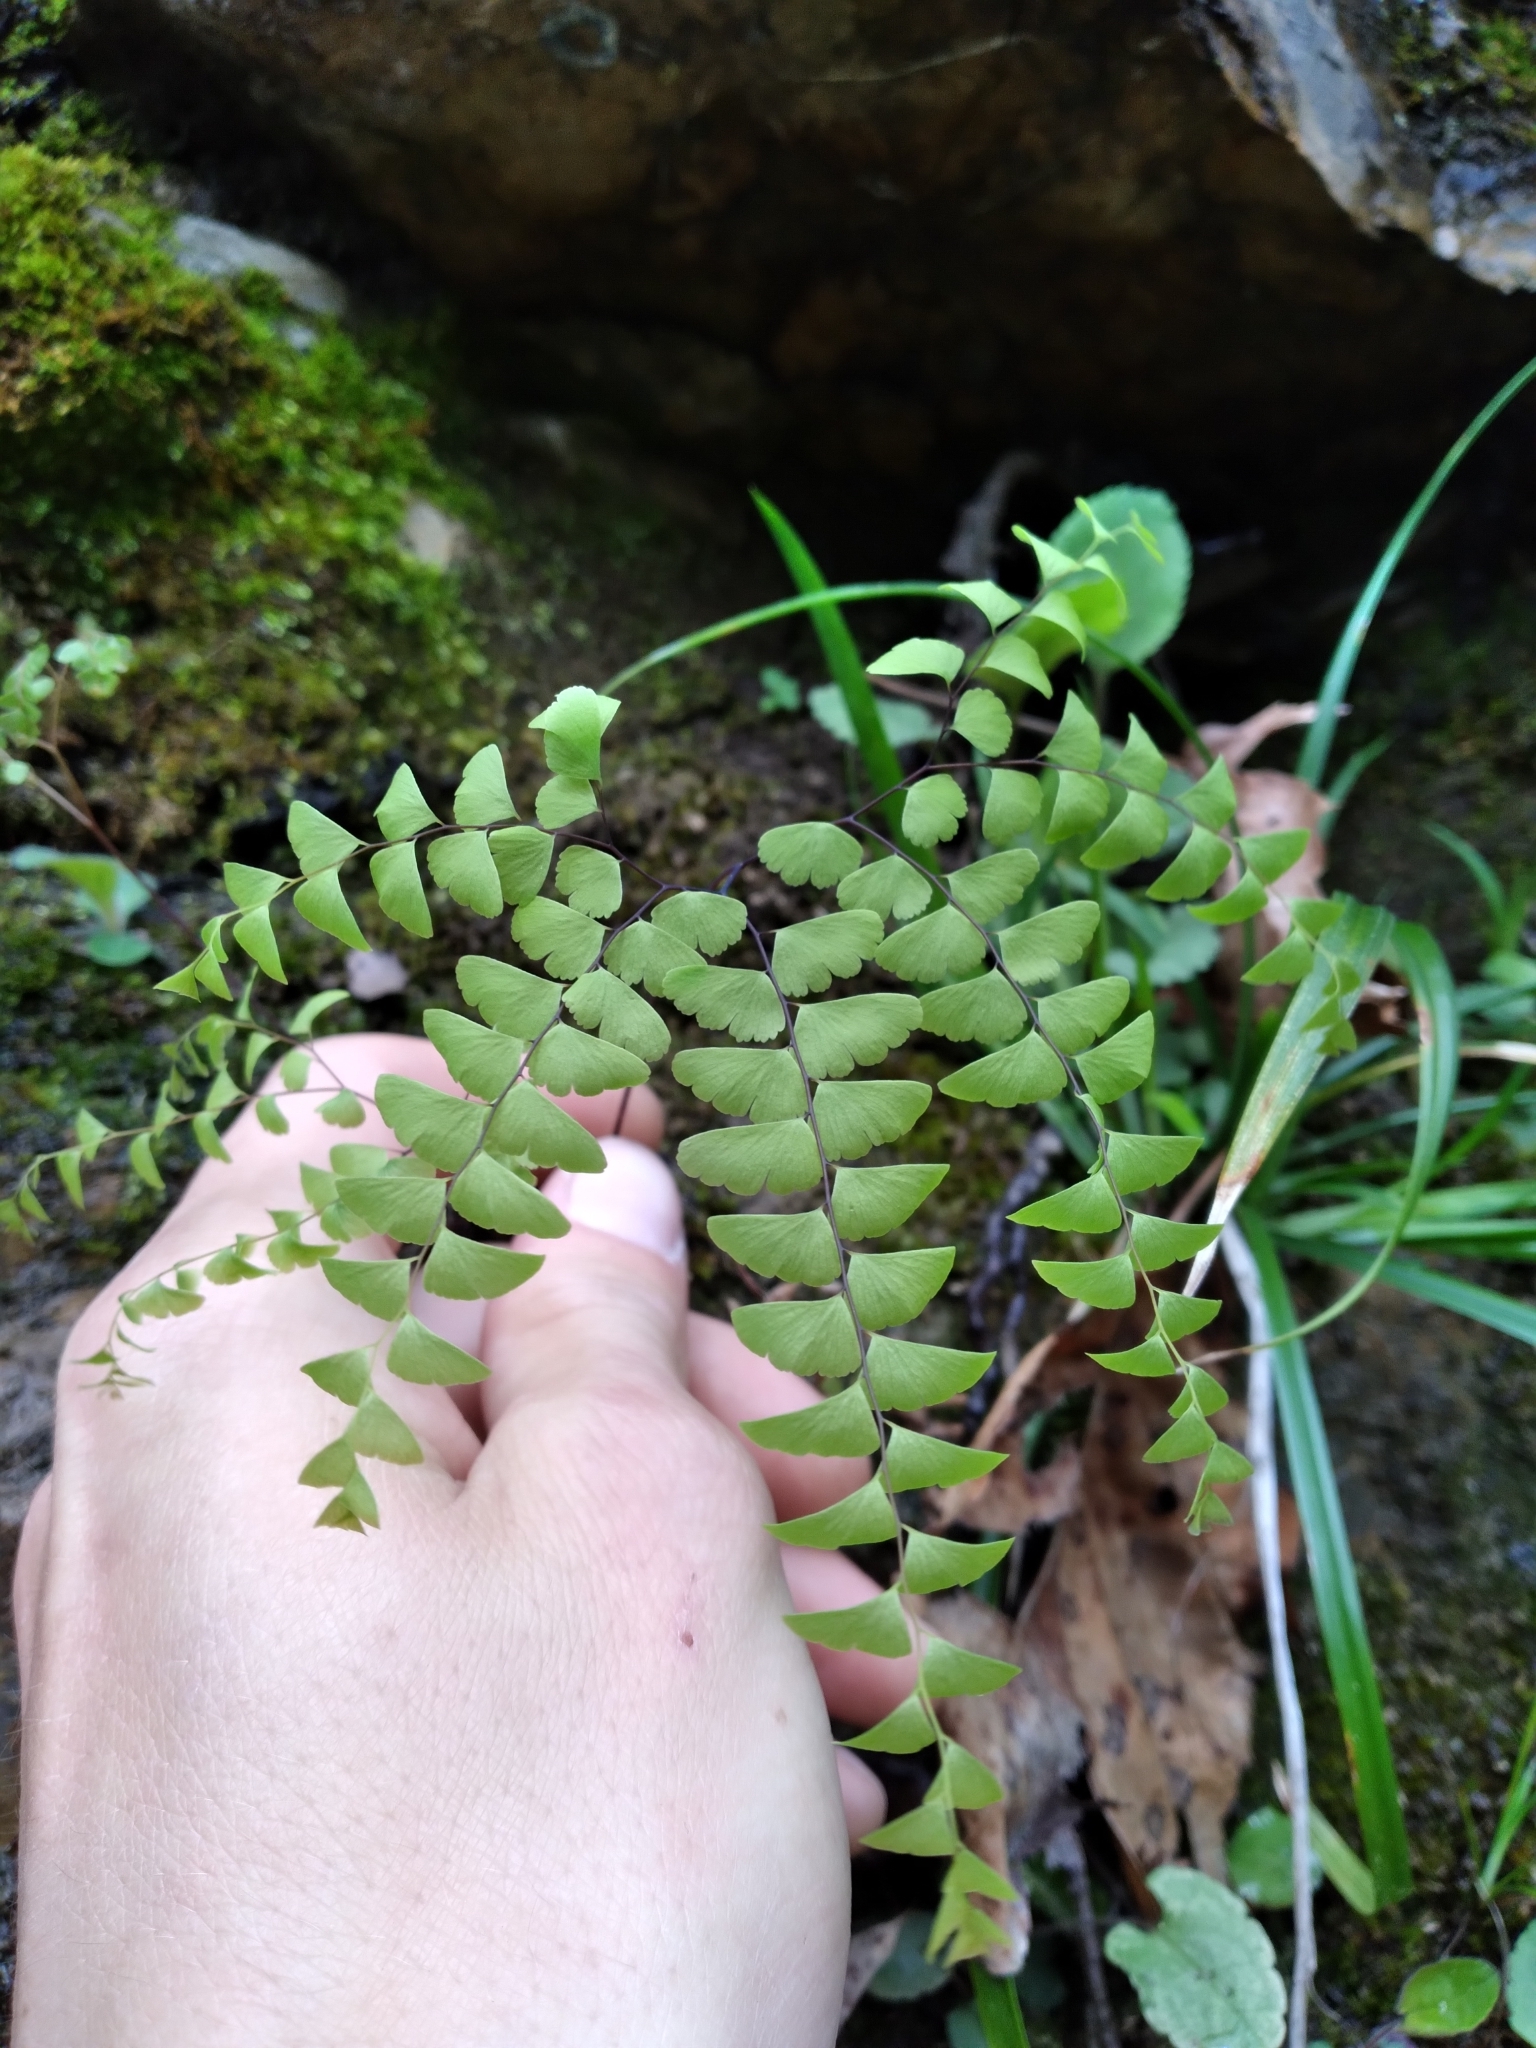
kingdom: Plantae
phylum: Tracheophyta
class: Polypodiopsida
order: Polypodiales
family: Pteridaceae
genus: Adiantum
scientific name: Adiantum pedatum
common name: Five-finger fern
